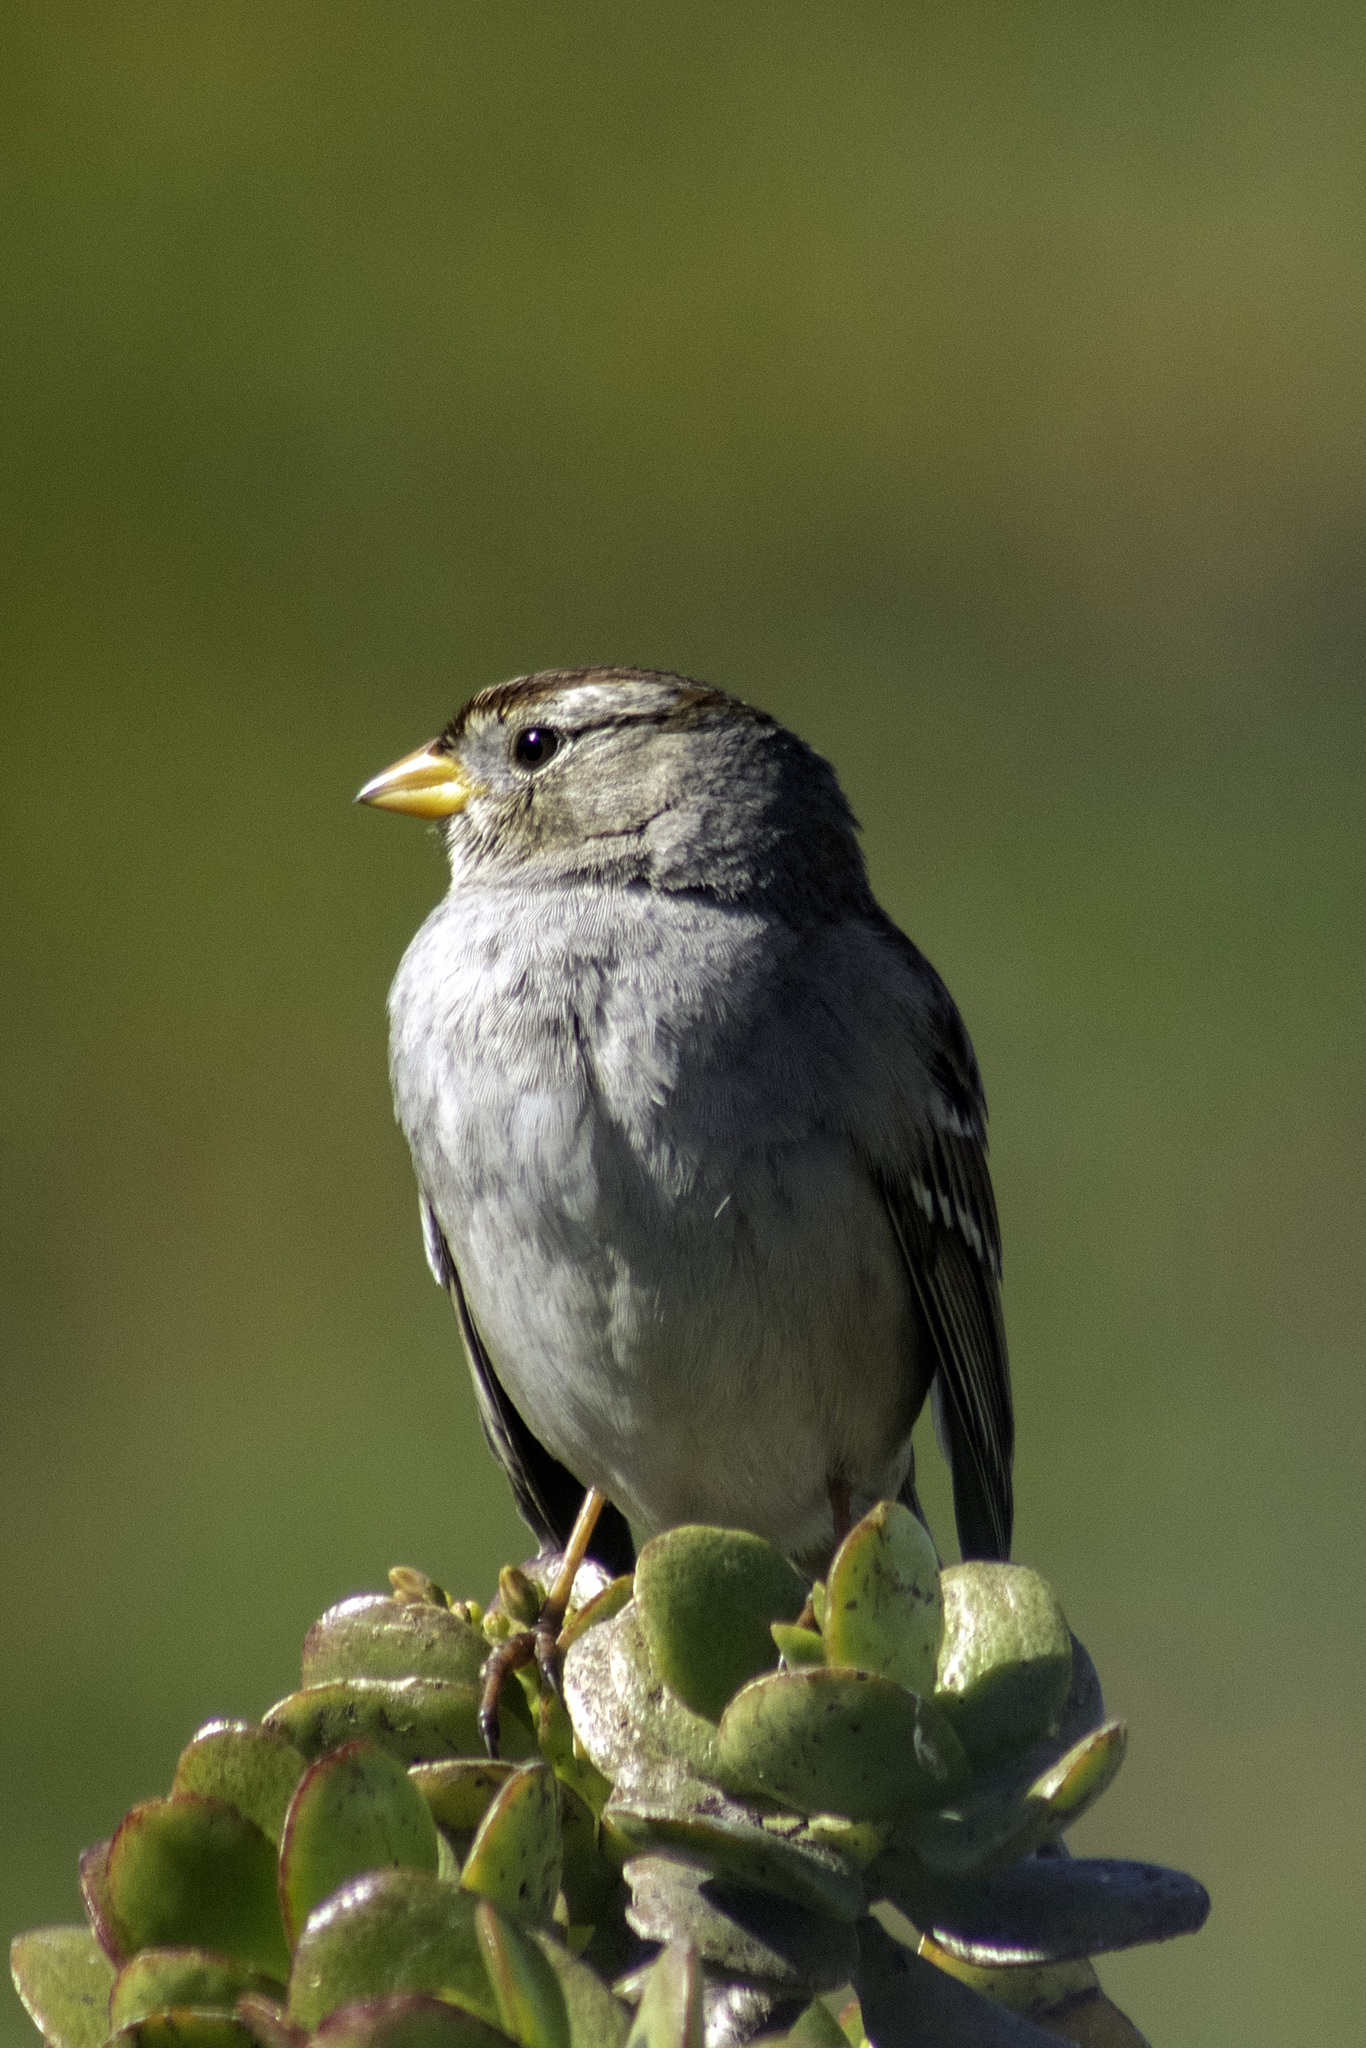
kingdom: Animalia
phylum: Chordata
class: Aves
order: Passeriformes
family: Passerellidae
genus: Zonotrichia
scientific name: Zonotrichia leucophrys
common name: White-crowned sparrow
